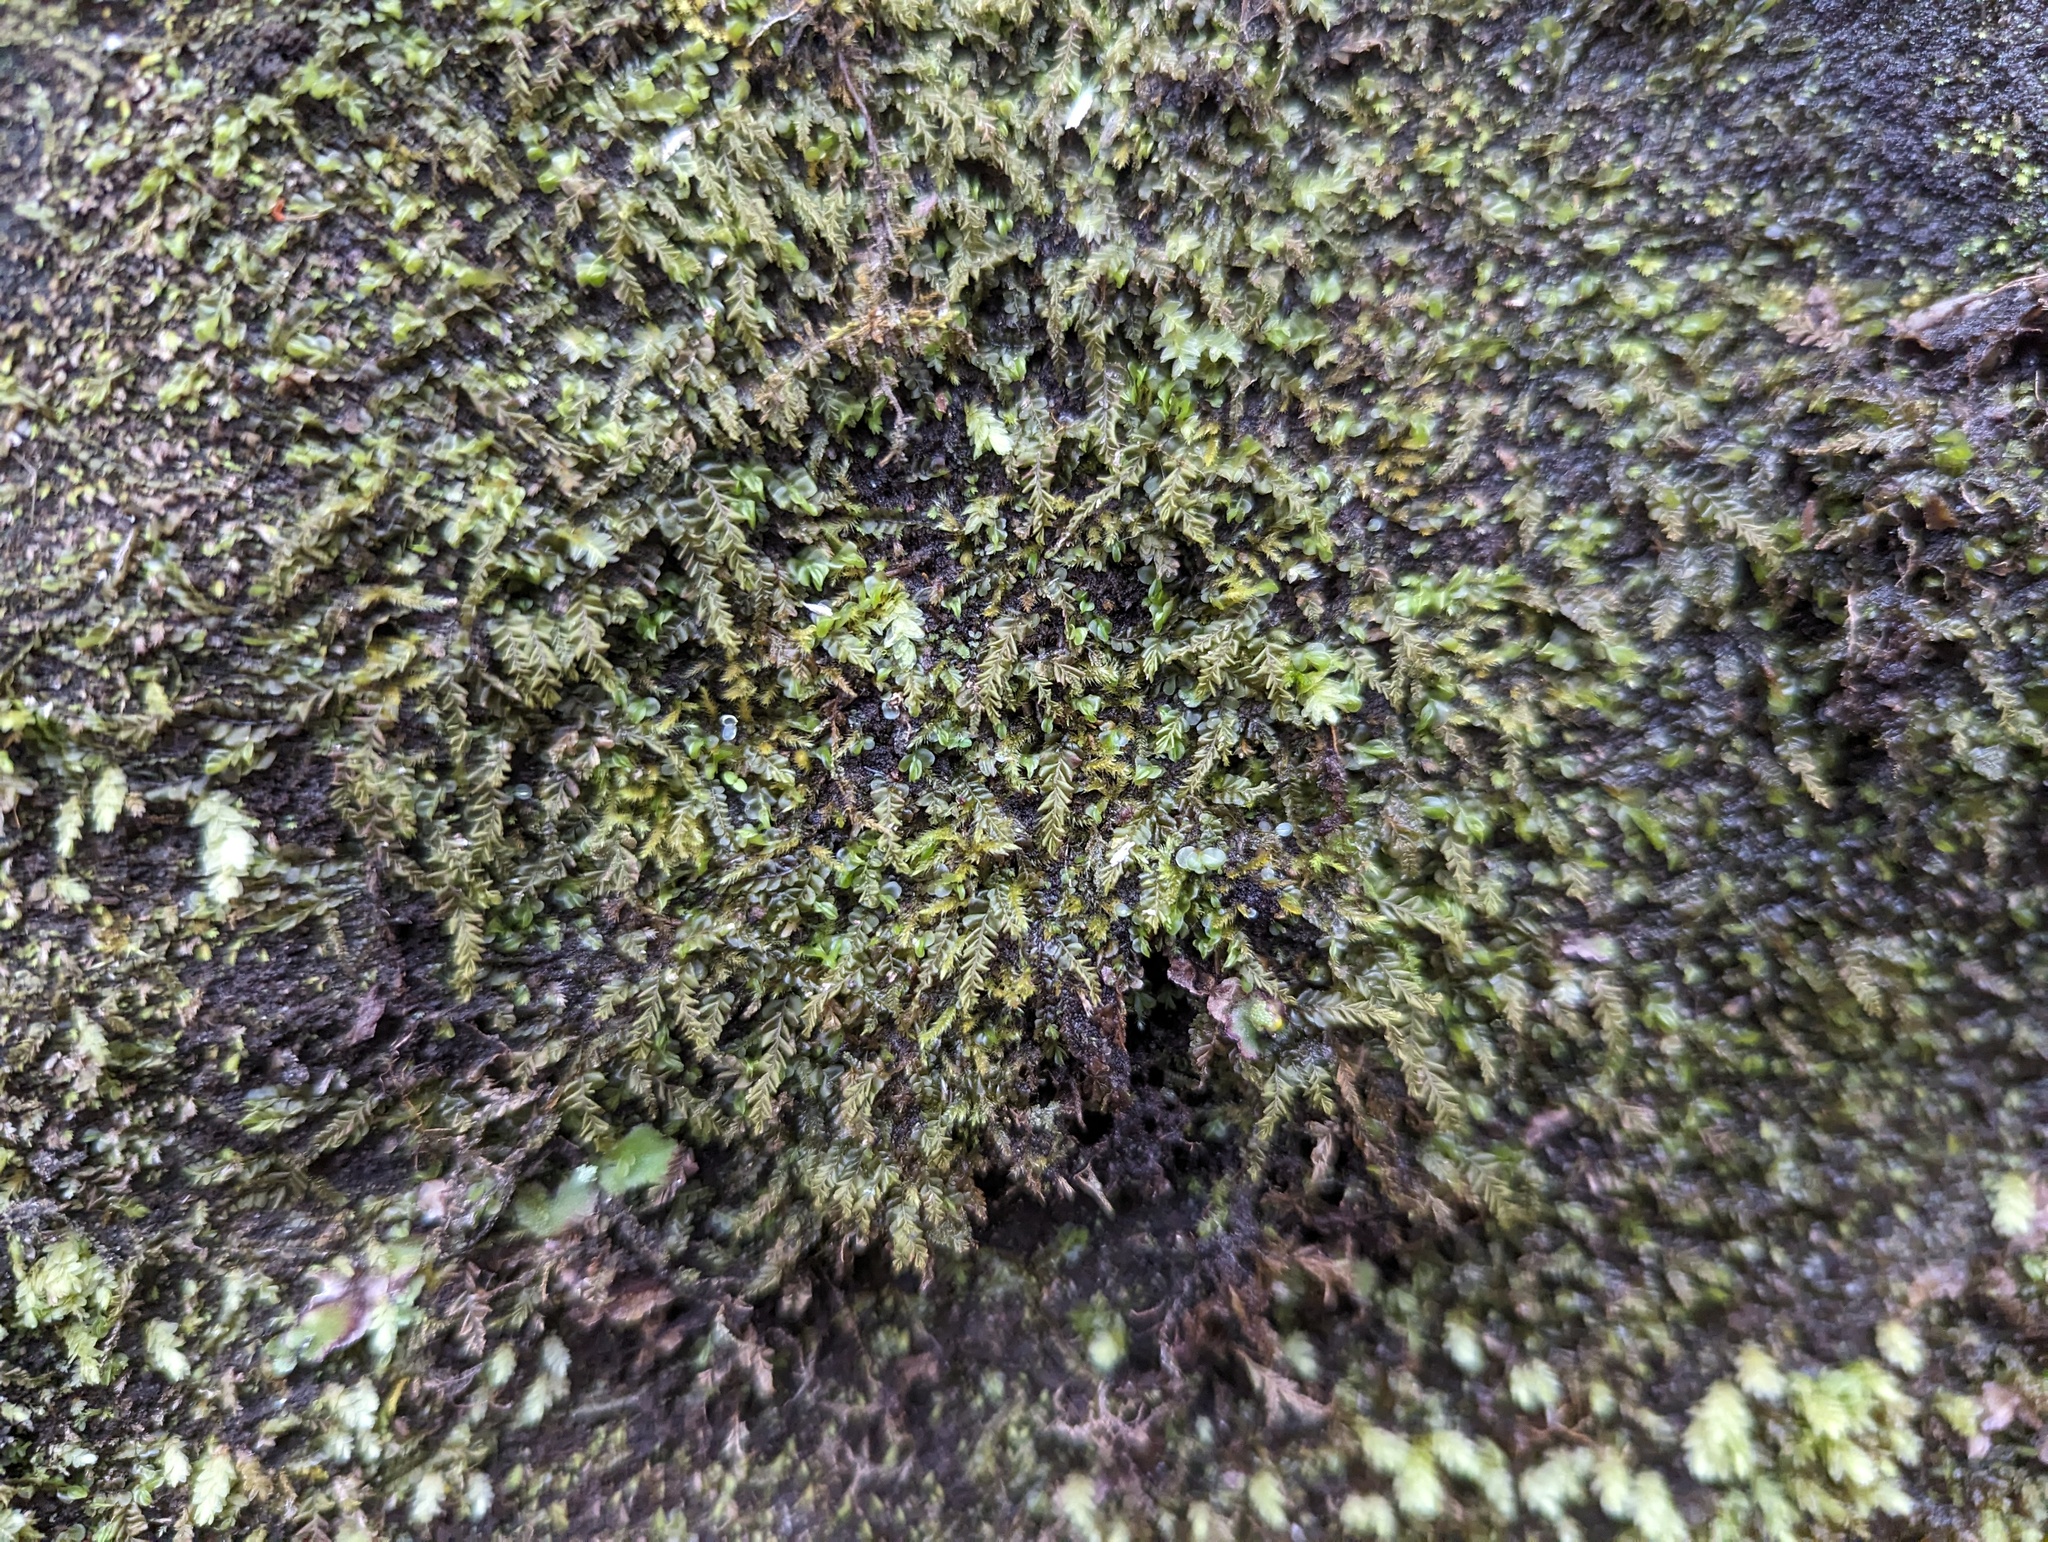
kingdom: Plantae
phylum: Marchantiophyta
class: Jungermanniopsida
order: Jungermanniales
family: Plagiochilaceae
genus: Plagiochila
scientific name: Plagiochila porelloides
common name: Lesser featherwort
